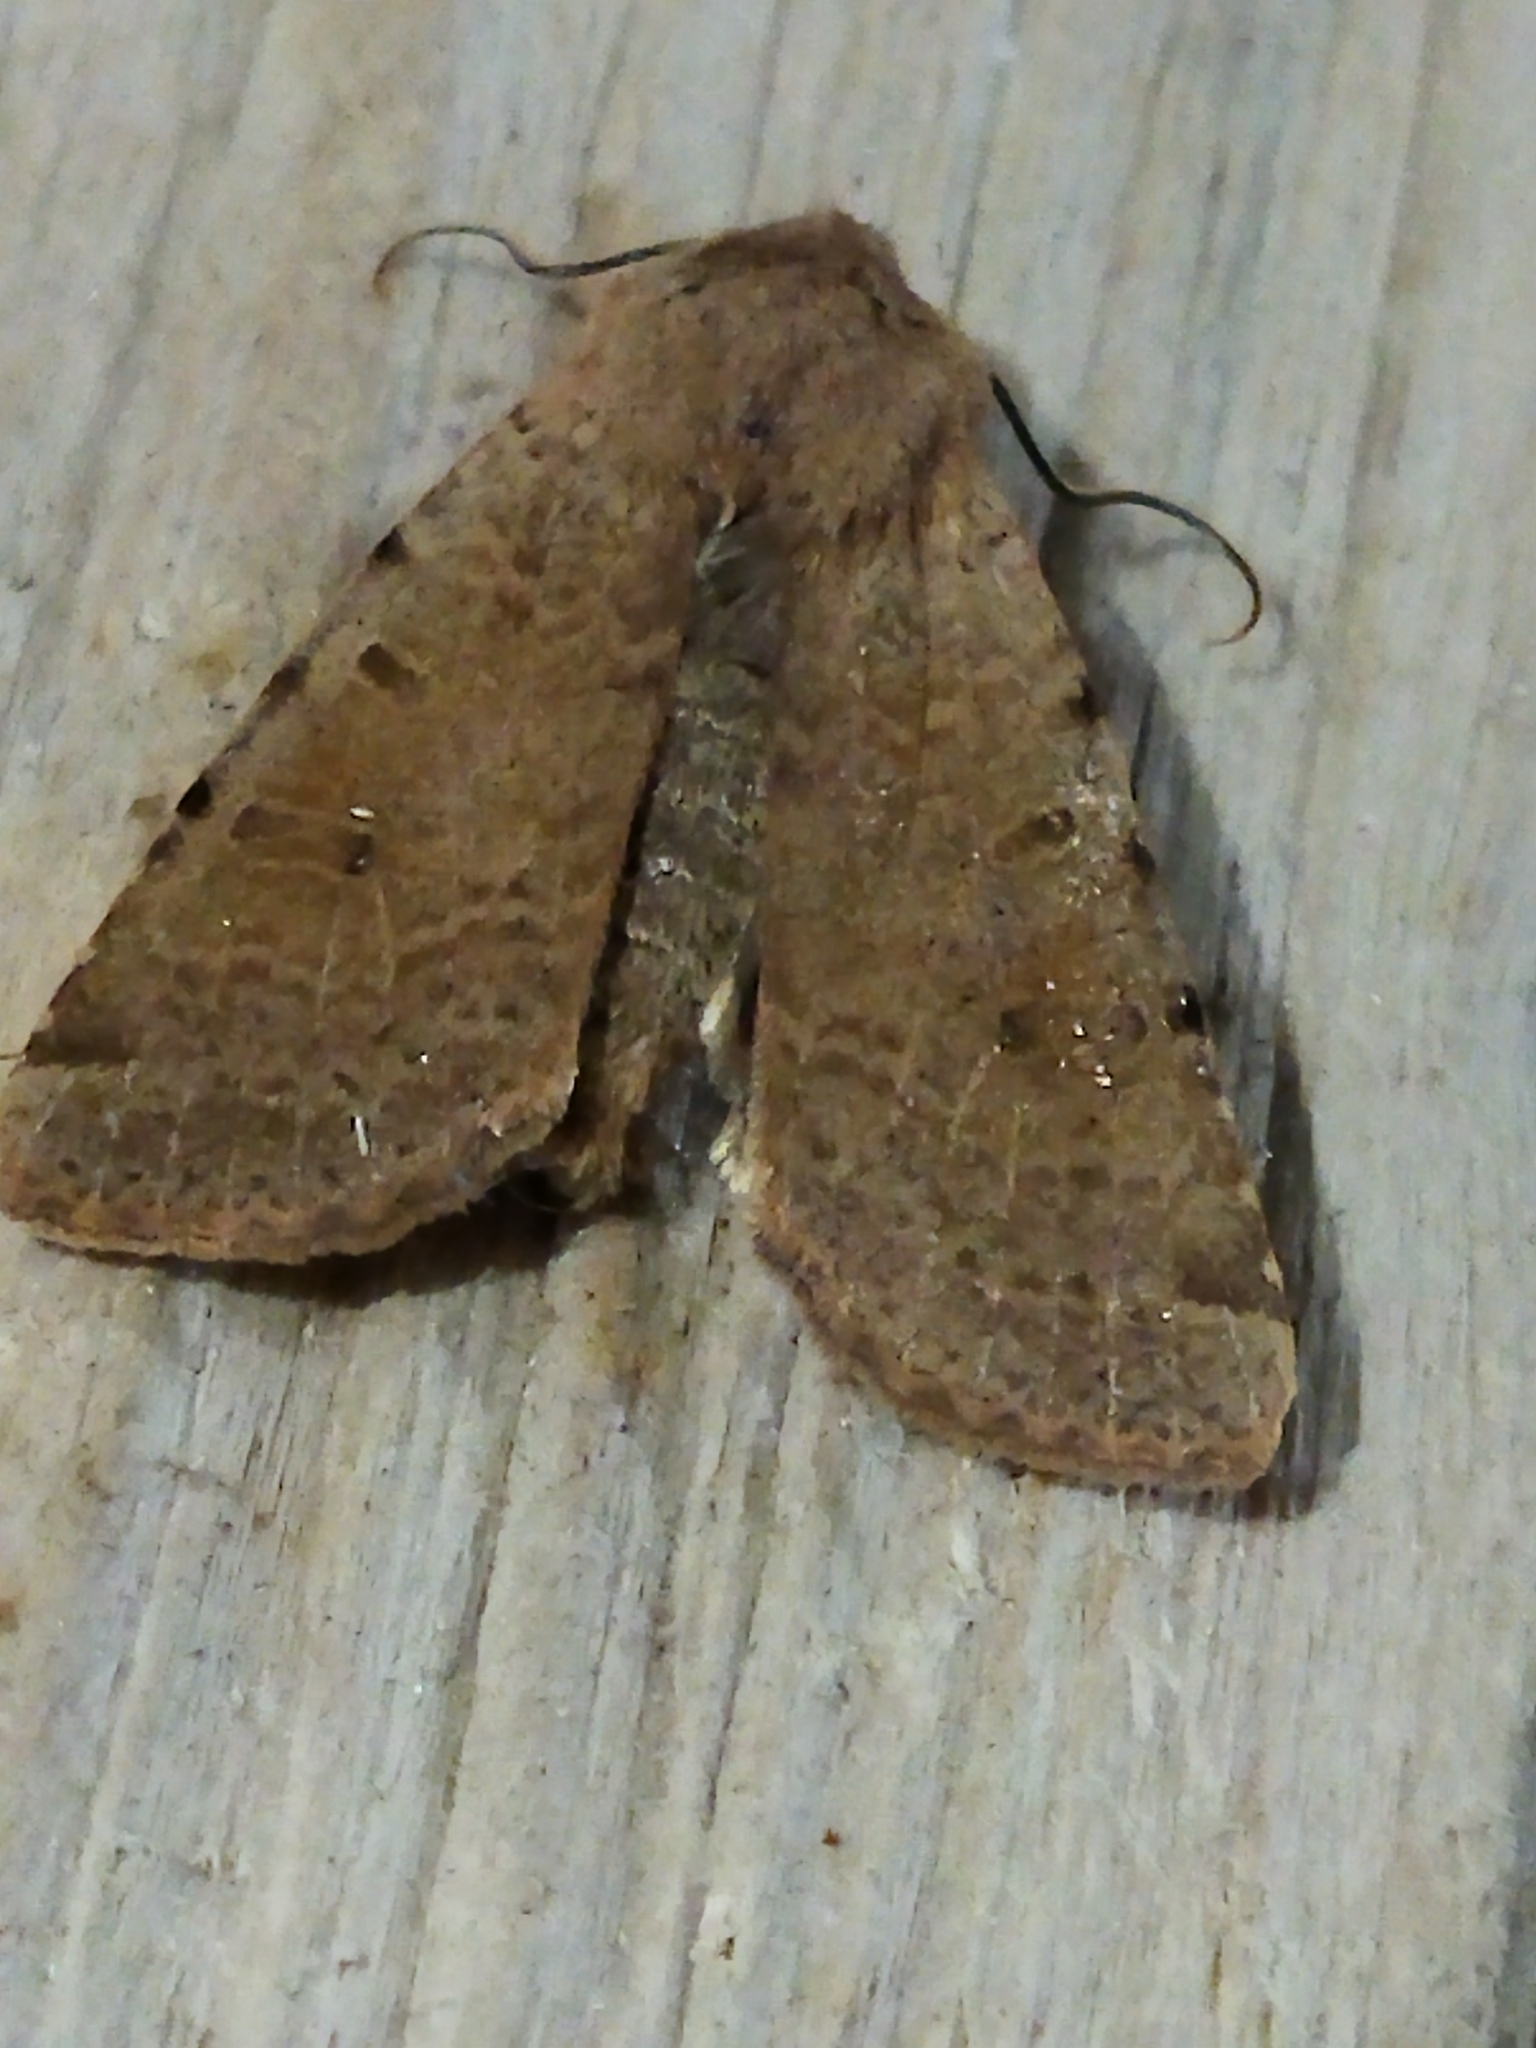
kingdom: Animalia
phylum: Arthropoda
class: Insecta
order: Lepidoptera
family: Noctuidae
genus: Agrochola
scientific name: Agrochola lychnidis
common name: Beaded chestnut
